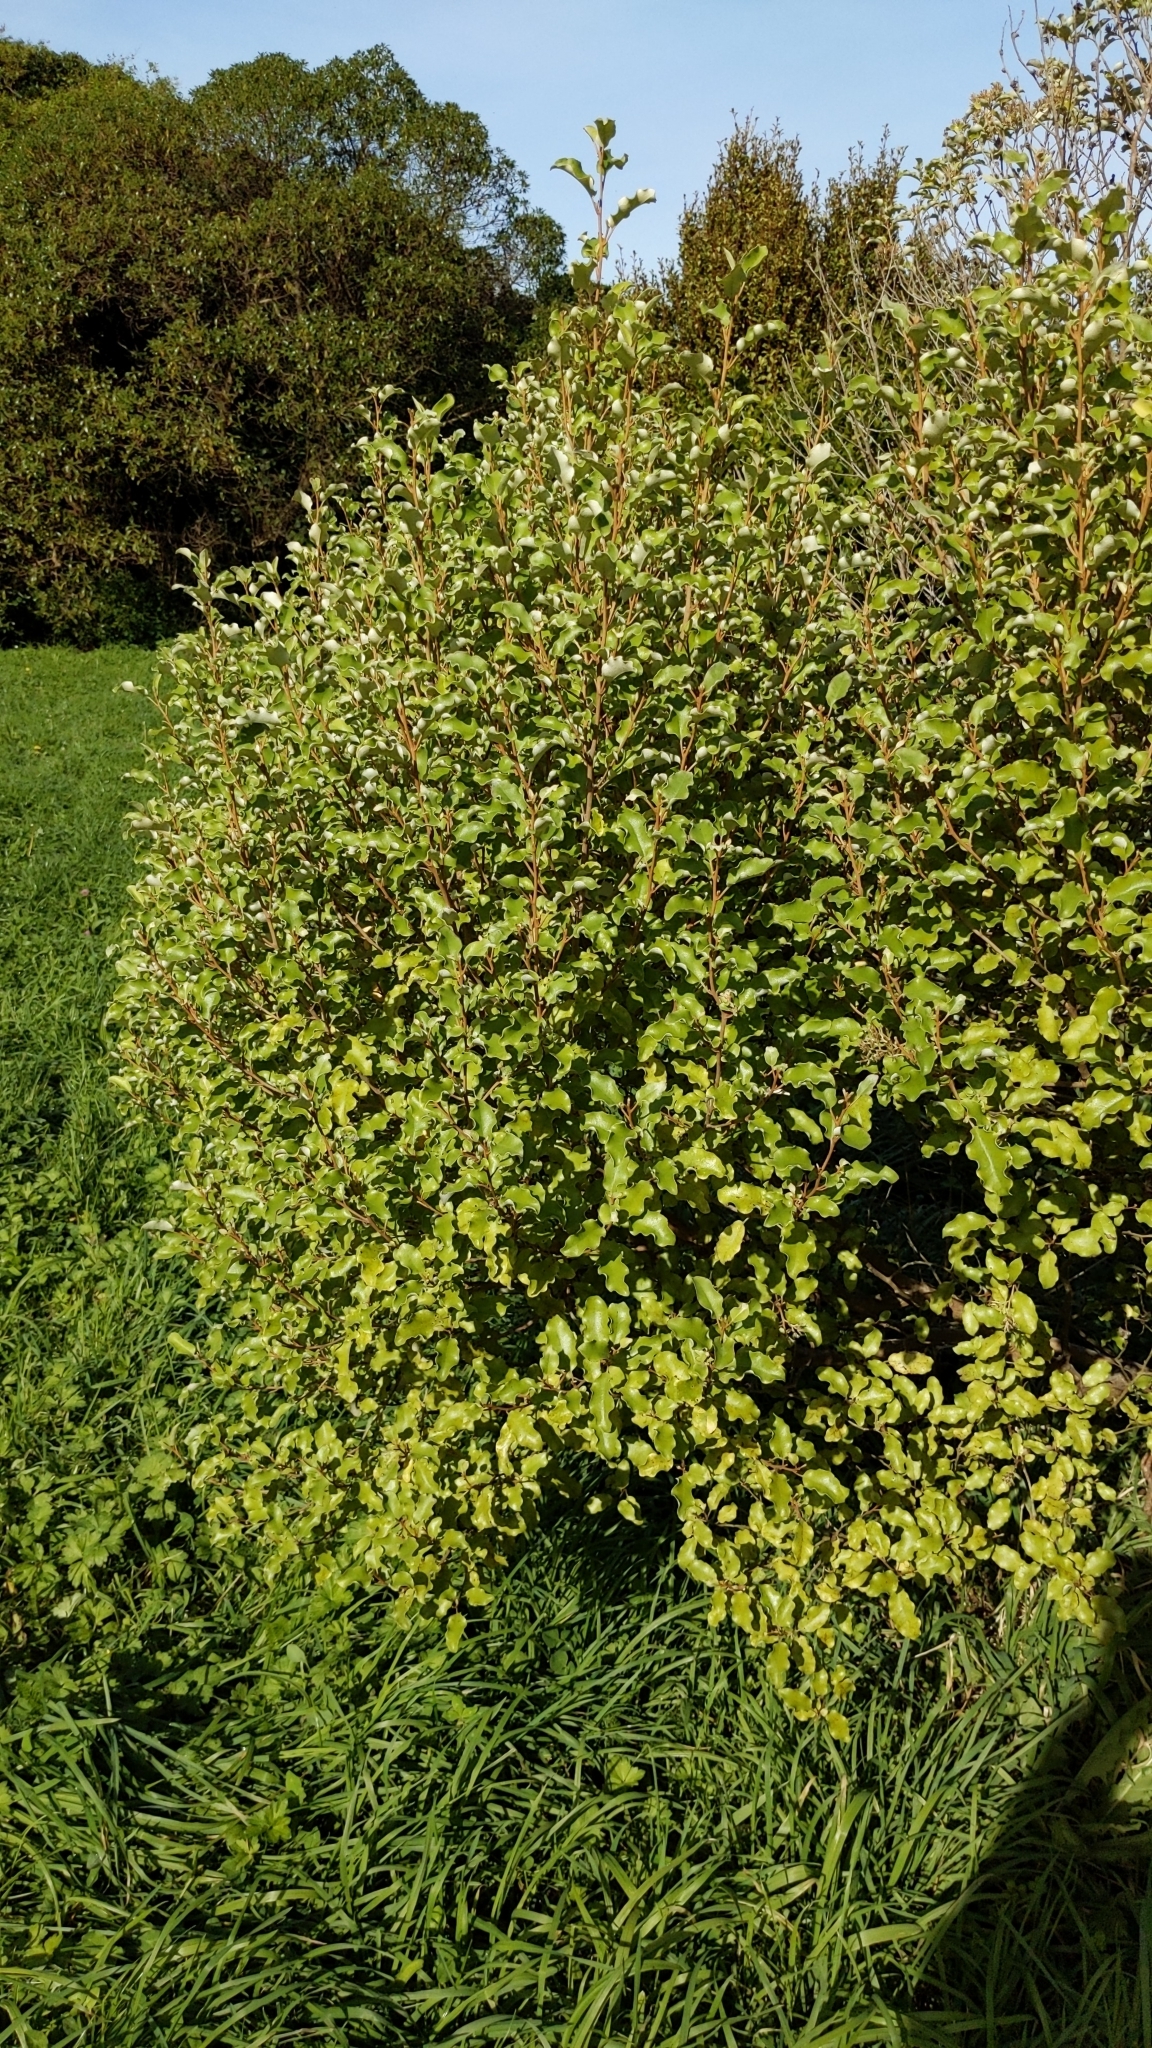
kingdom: Plantae
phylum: Tracheophyta
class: Magnoliopsida
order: Asterales
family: Asteraceae
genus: Olearia
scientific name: Olearia paniculata
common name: Akiraho
